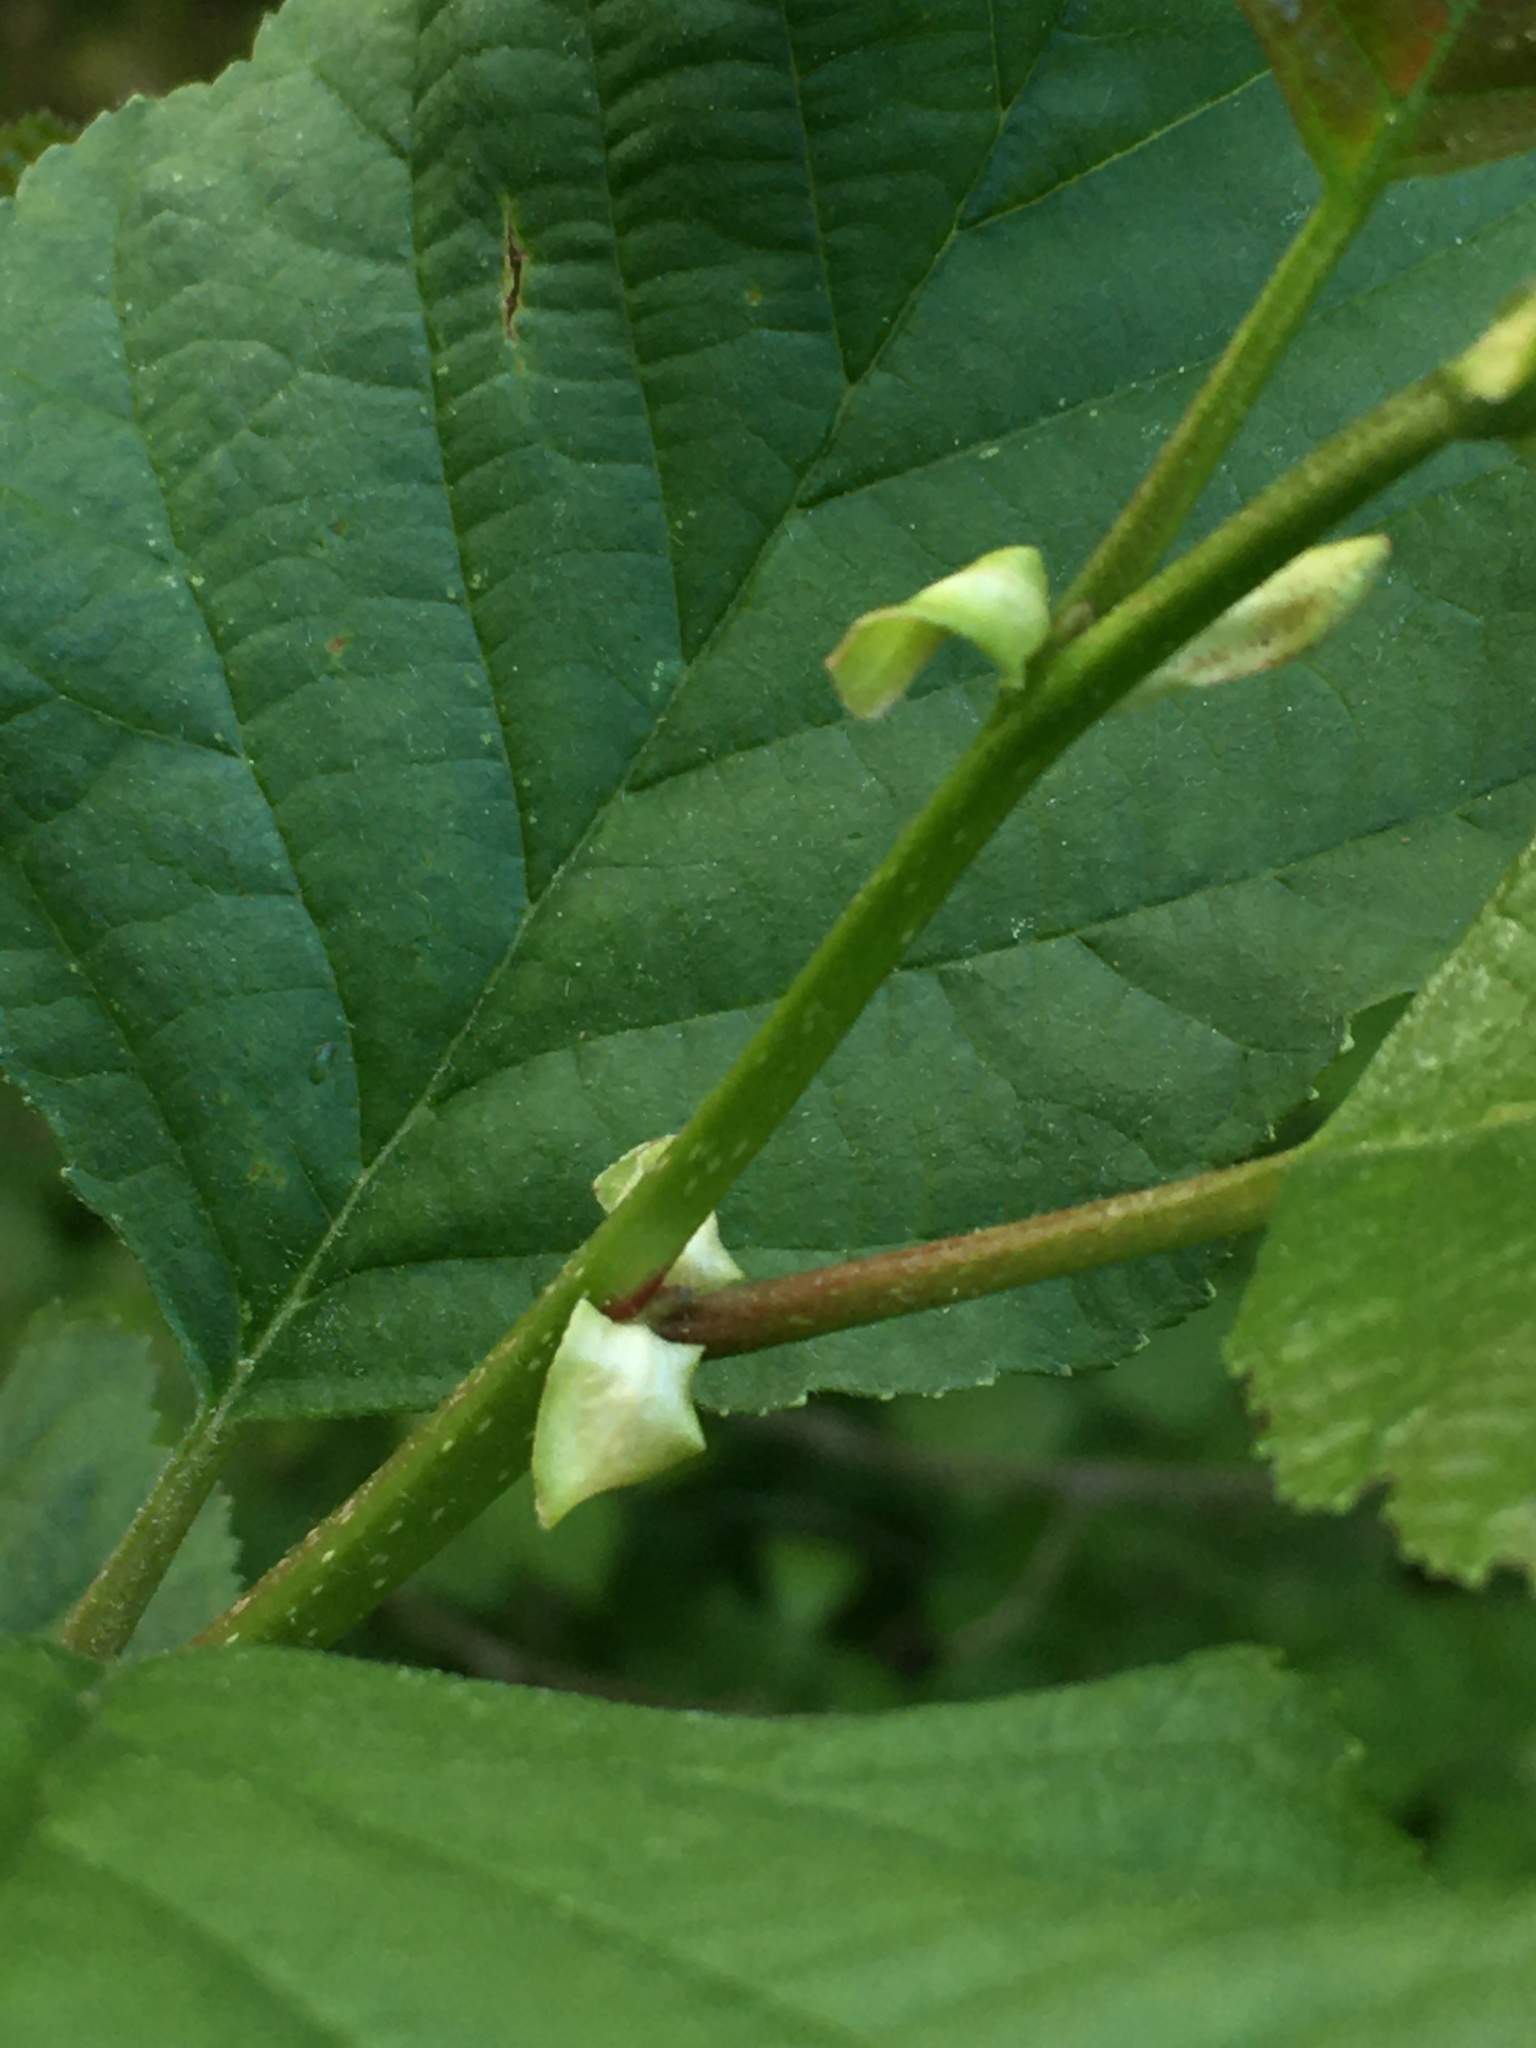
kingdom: Plantae
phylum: Tracheophyta
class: Magnoliopsida
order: Fagales
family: Betulaceae
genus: Alnus
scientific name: Alnus glutinosa
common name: Black alder
